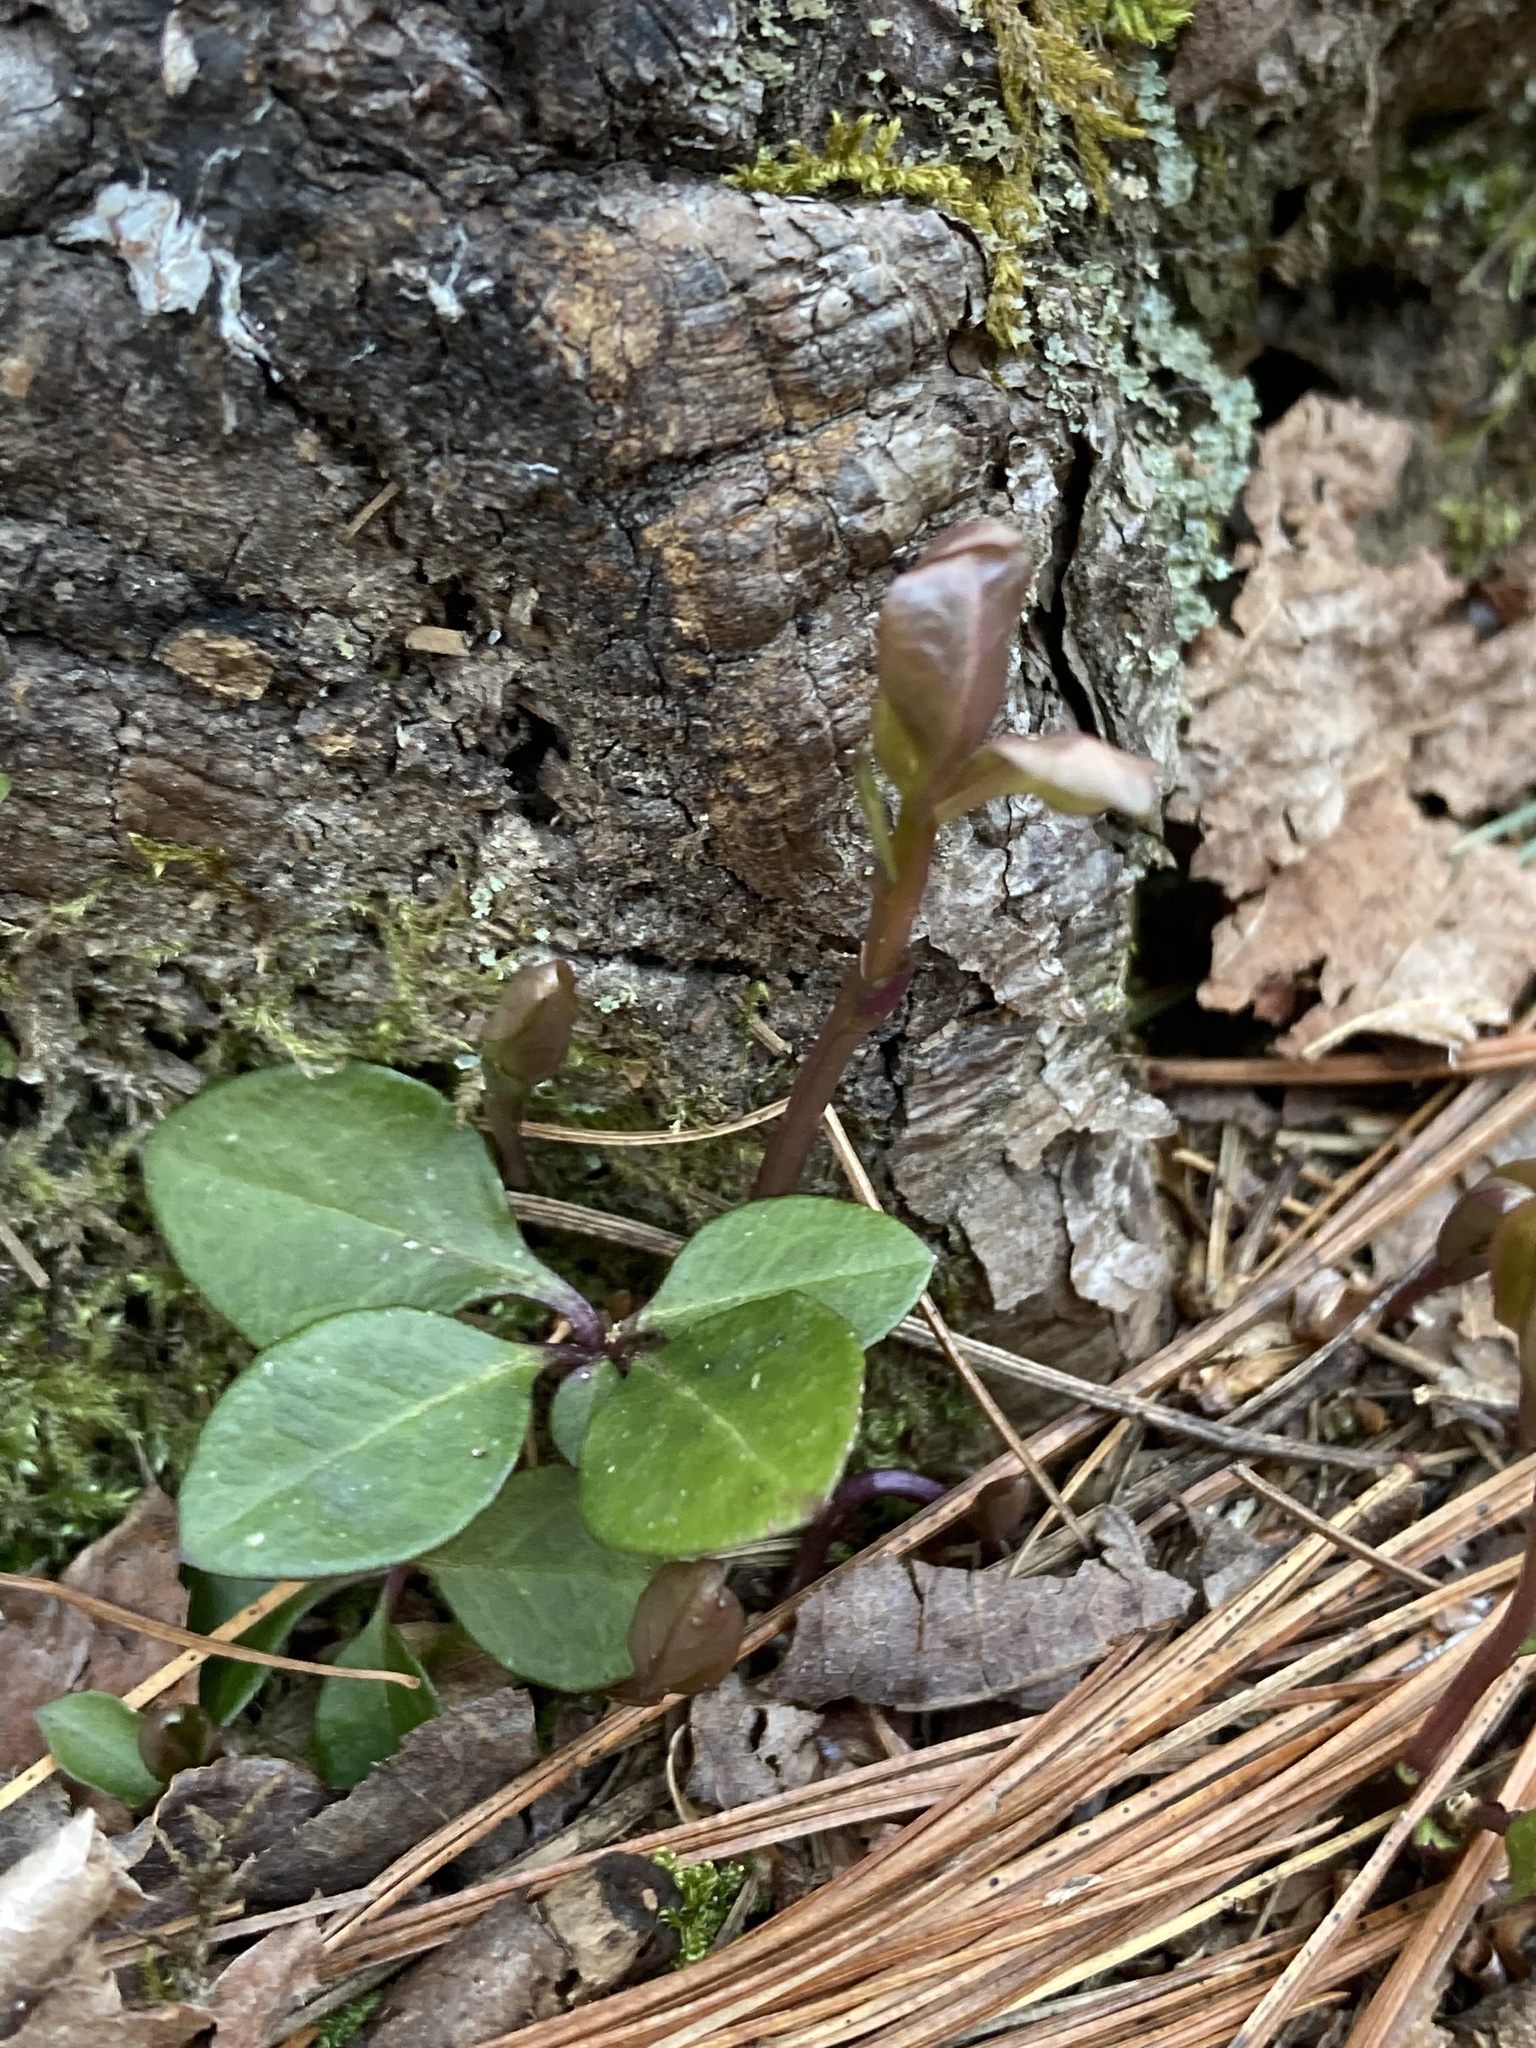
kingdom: Plantae
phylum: Tracheophyta
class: Magnoliopsida
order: Fabales
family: Polygalaceae
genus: Polygaloides
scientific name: Polygaloides paucifolia
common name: Bird-on-the-wing
